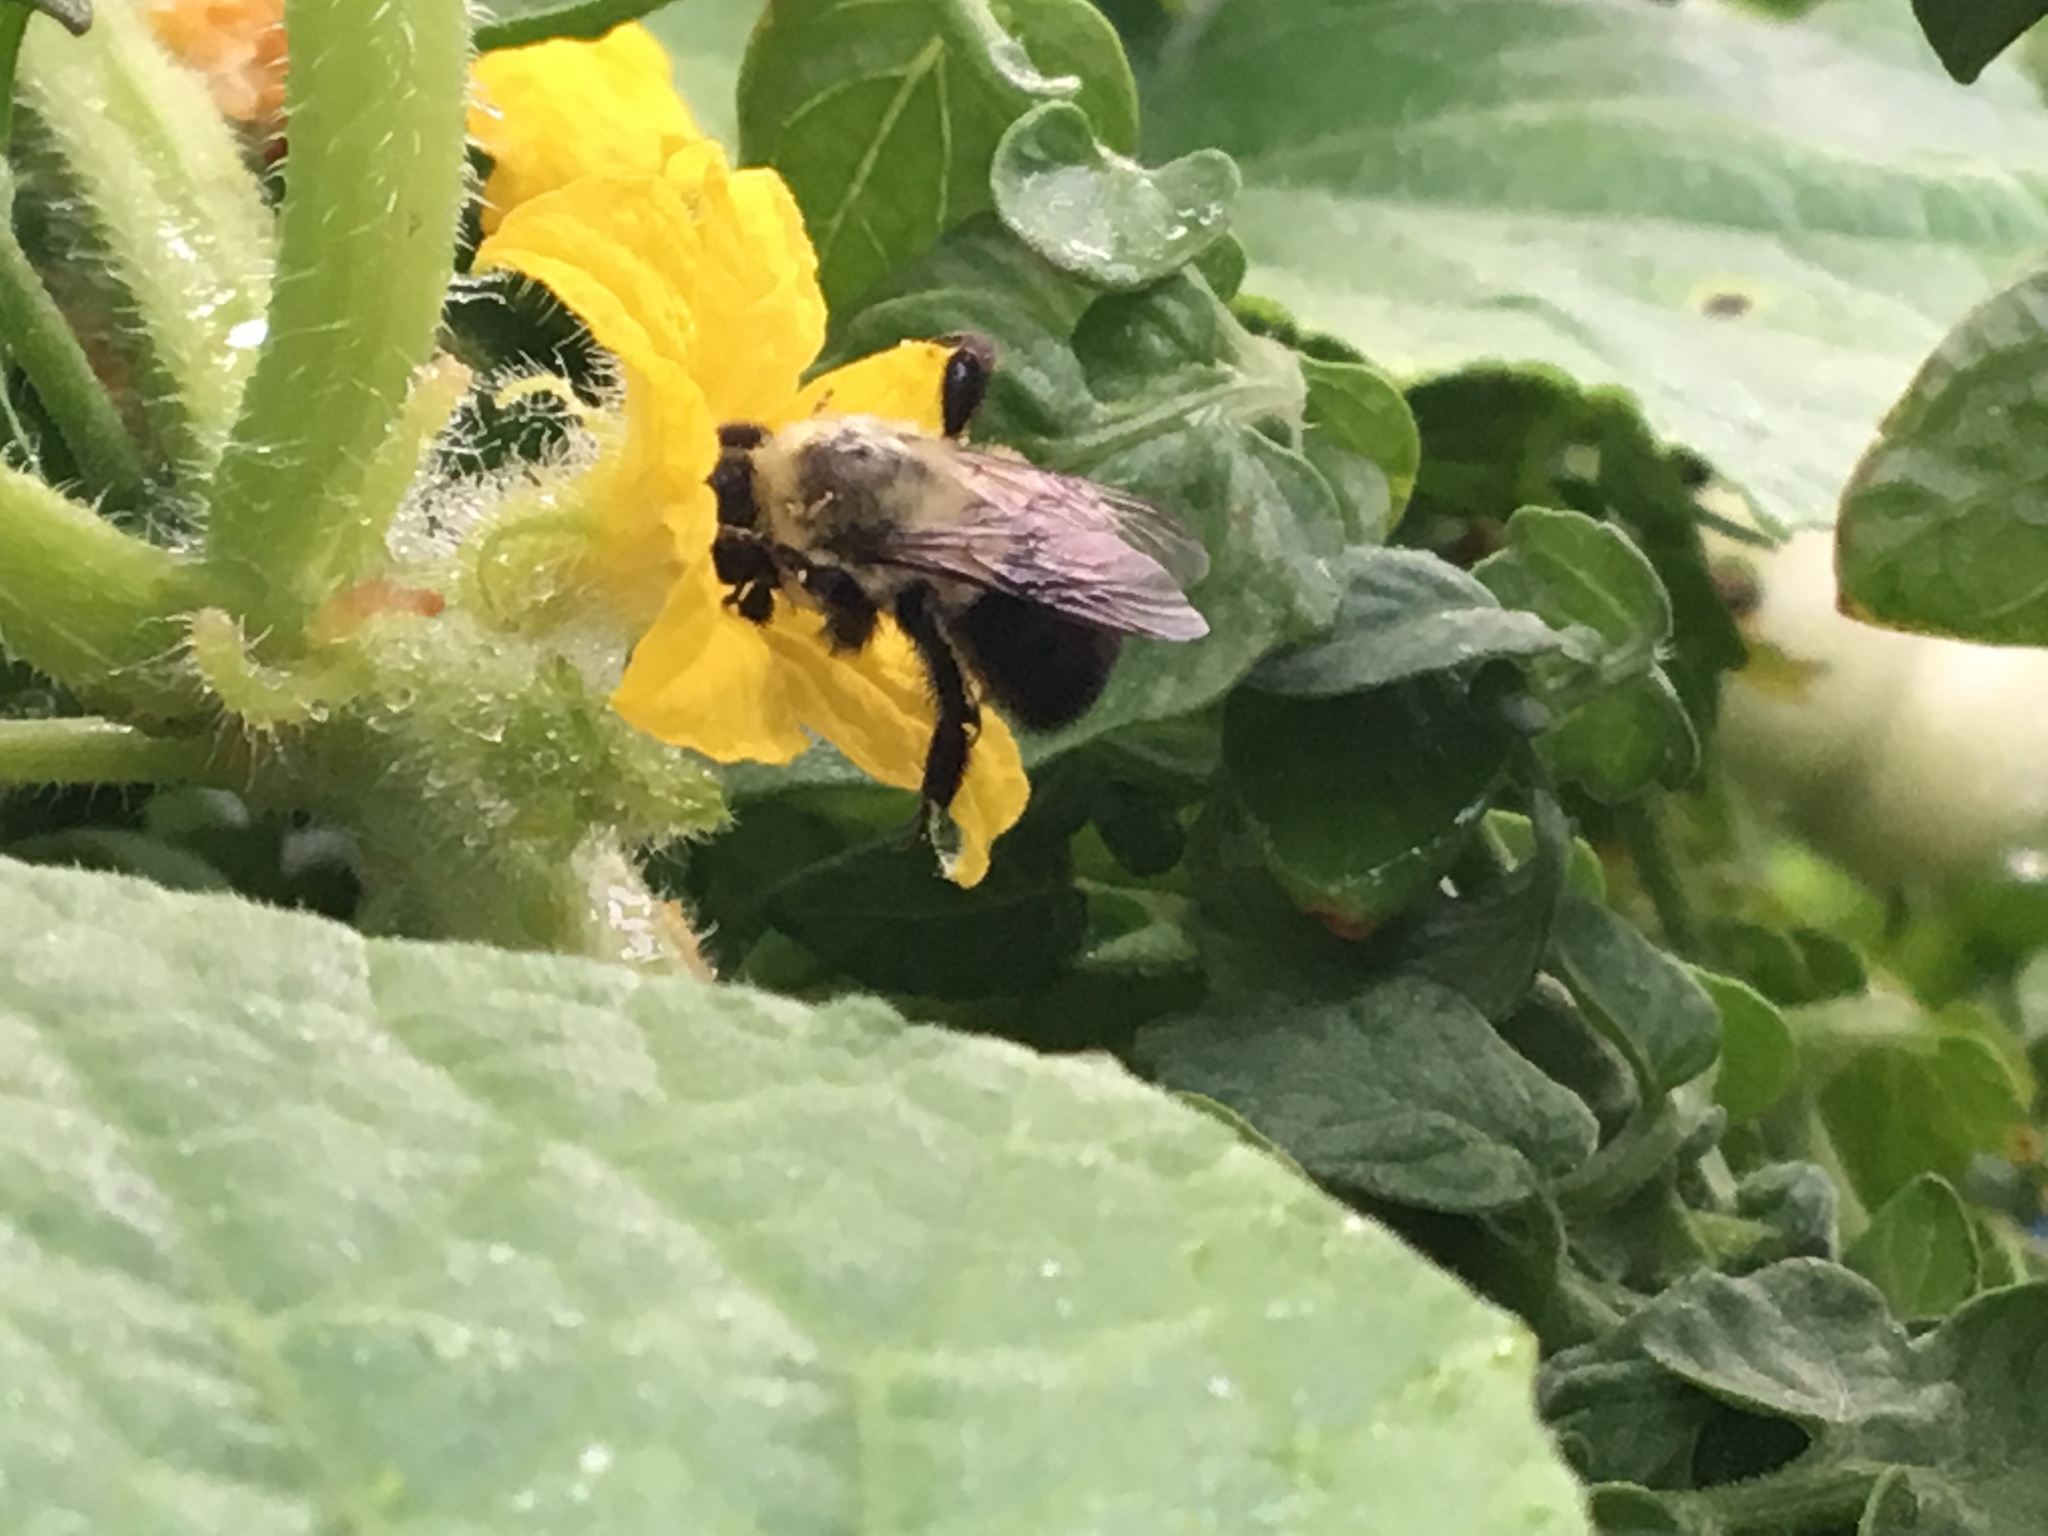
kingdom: Animalia
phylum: Arthropoda
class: Insecta
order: Hymenoptera
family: Apidae
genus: Bombus
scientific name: Bombus impatiens
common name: Common eastern bumble bee
